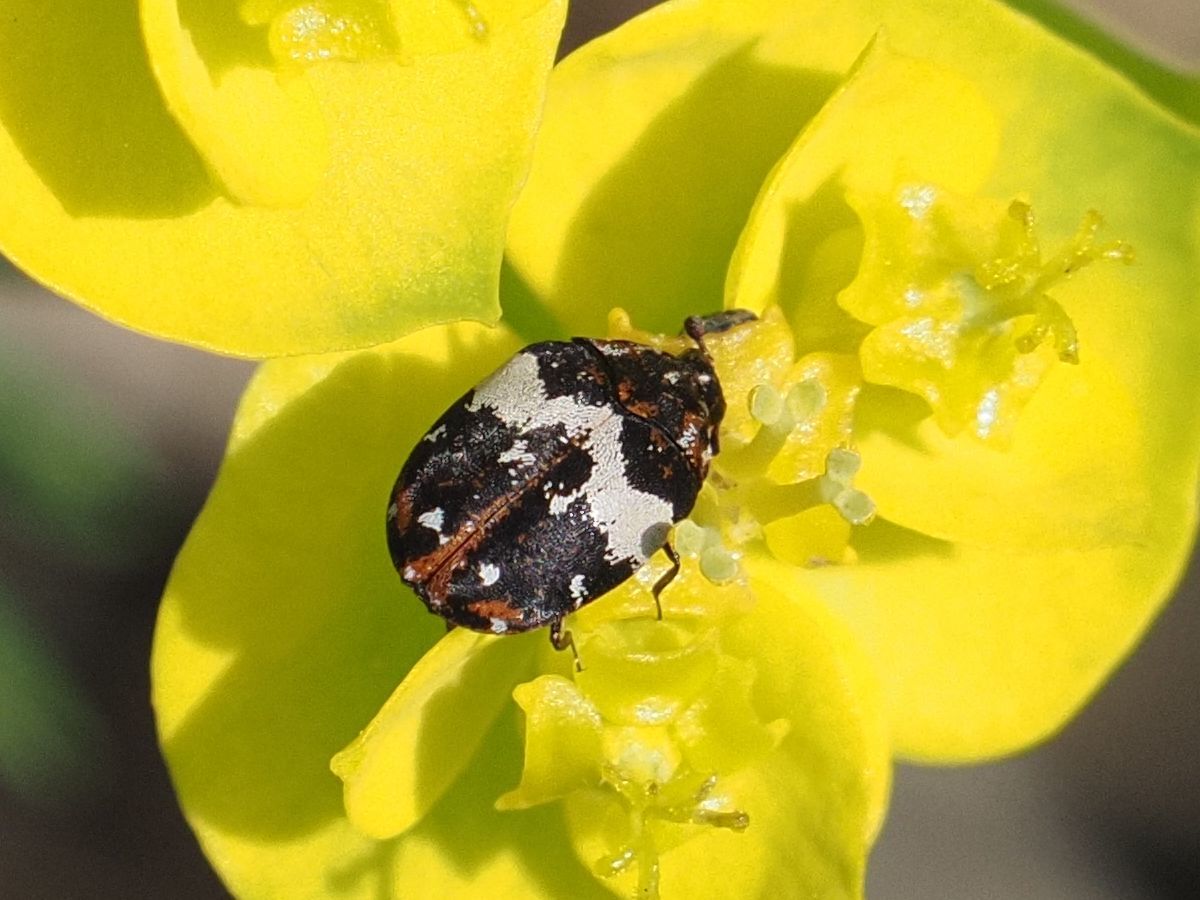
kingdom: Animalia
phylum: Arthropoda
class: Insecta
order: Coleoptera
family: Dermestidae
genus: Anthrenus
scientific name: Anthrenus pimpinellae
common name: Dermestid beetle
